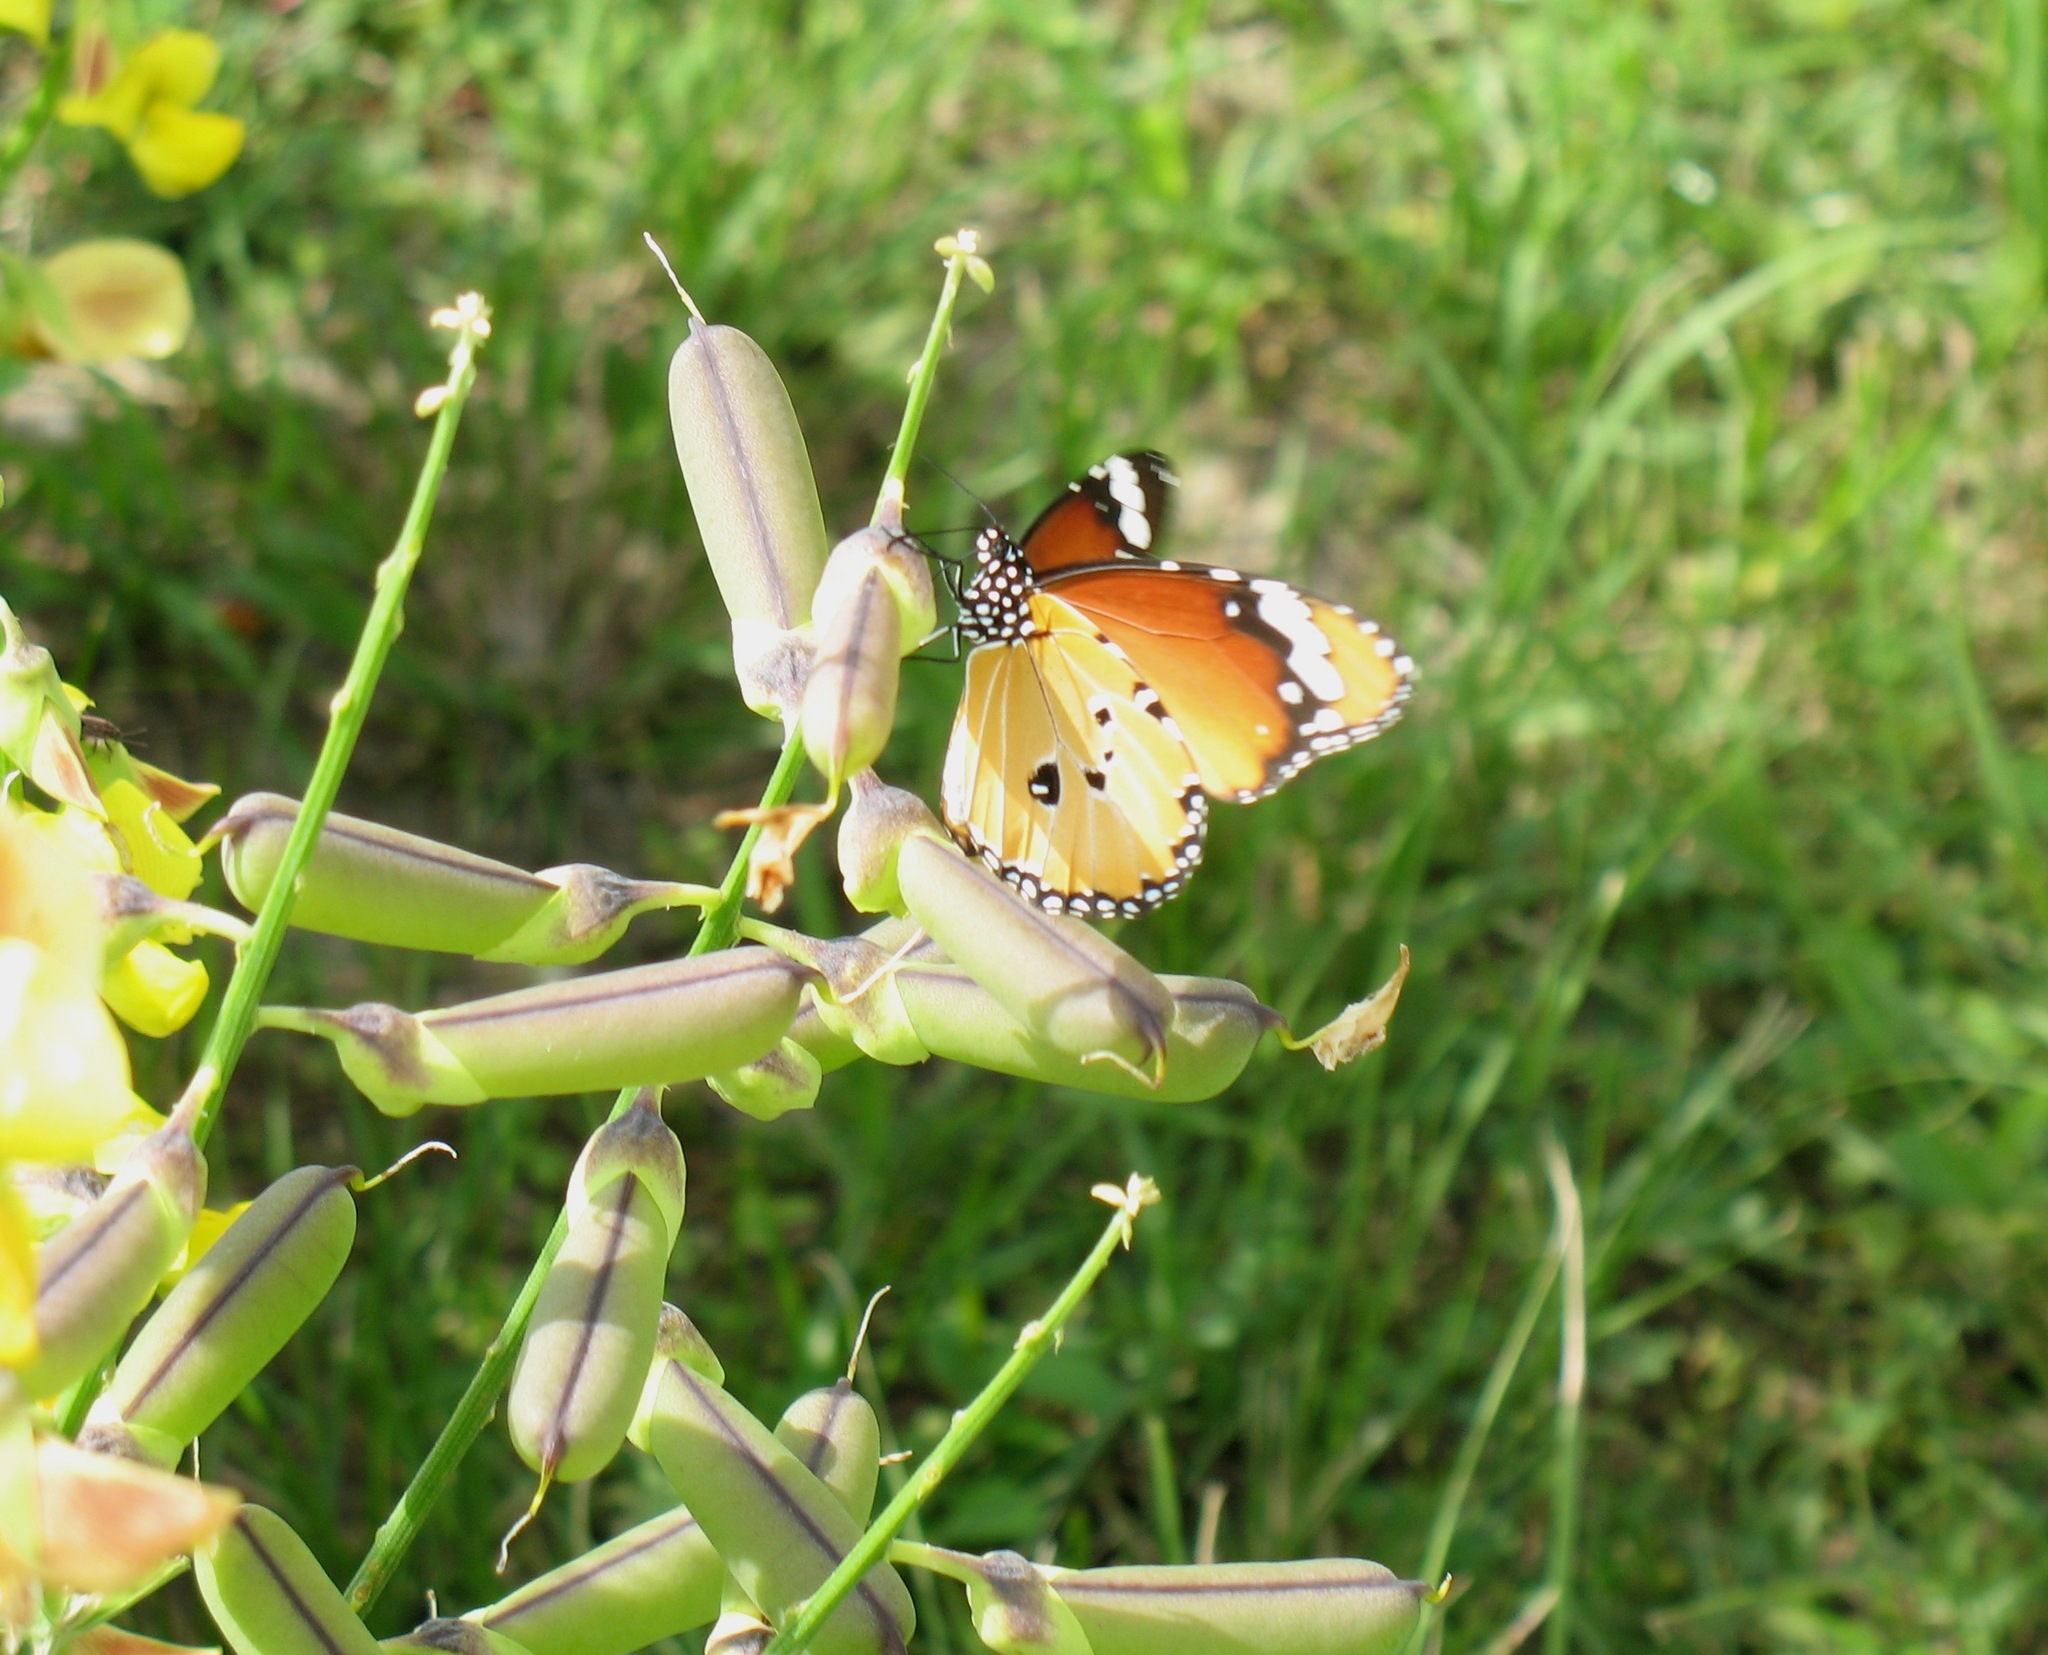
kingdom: Animalia
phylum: Arthropoda
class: Insecta
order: Lepidoptera
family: Nymphalidae
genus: Danaus
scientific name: Danaus chrysippus
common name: Plain tiger
